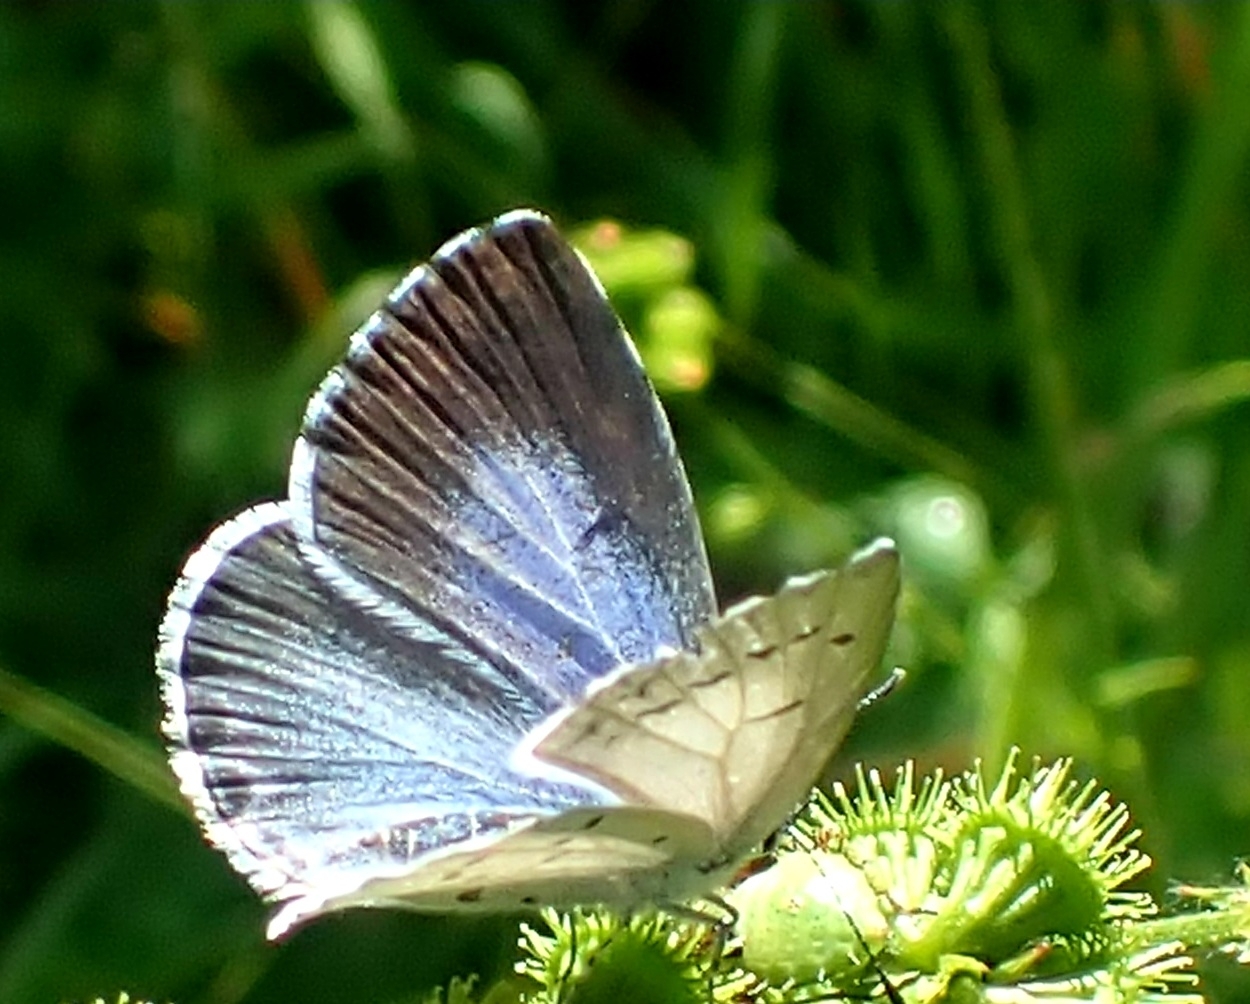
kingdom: Animalia
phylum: Arthropoda
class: Insecta
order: Lepidoptera
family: Lycaenidae
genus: Celastrina
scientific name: Celastrina argiolus
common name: Holly blue
